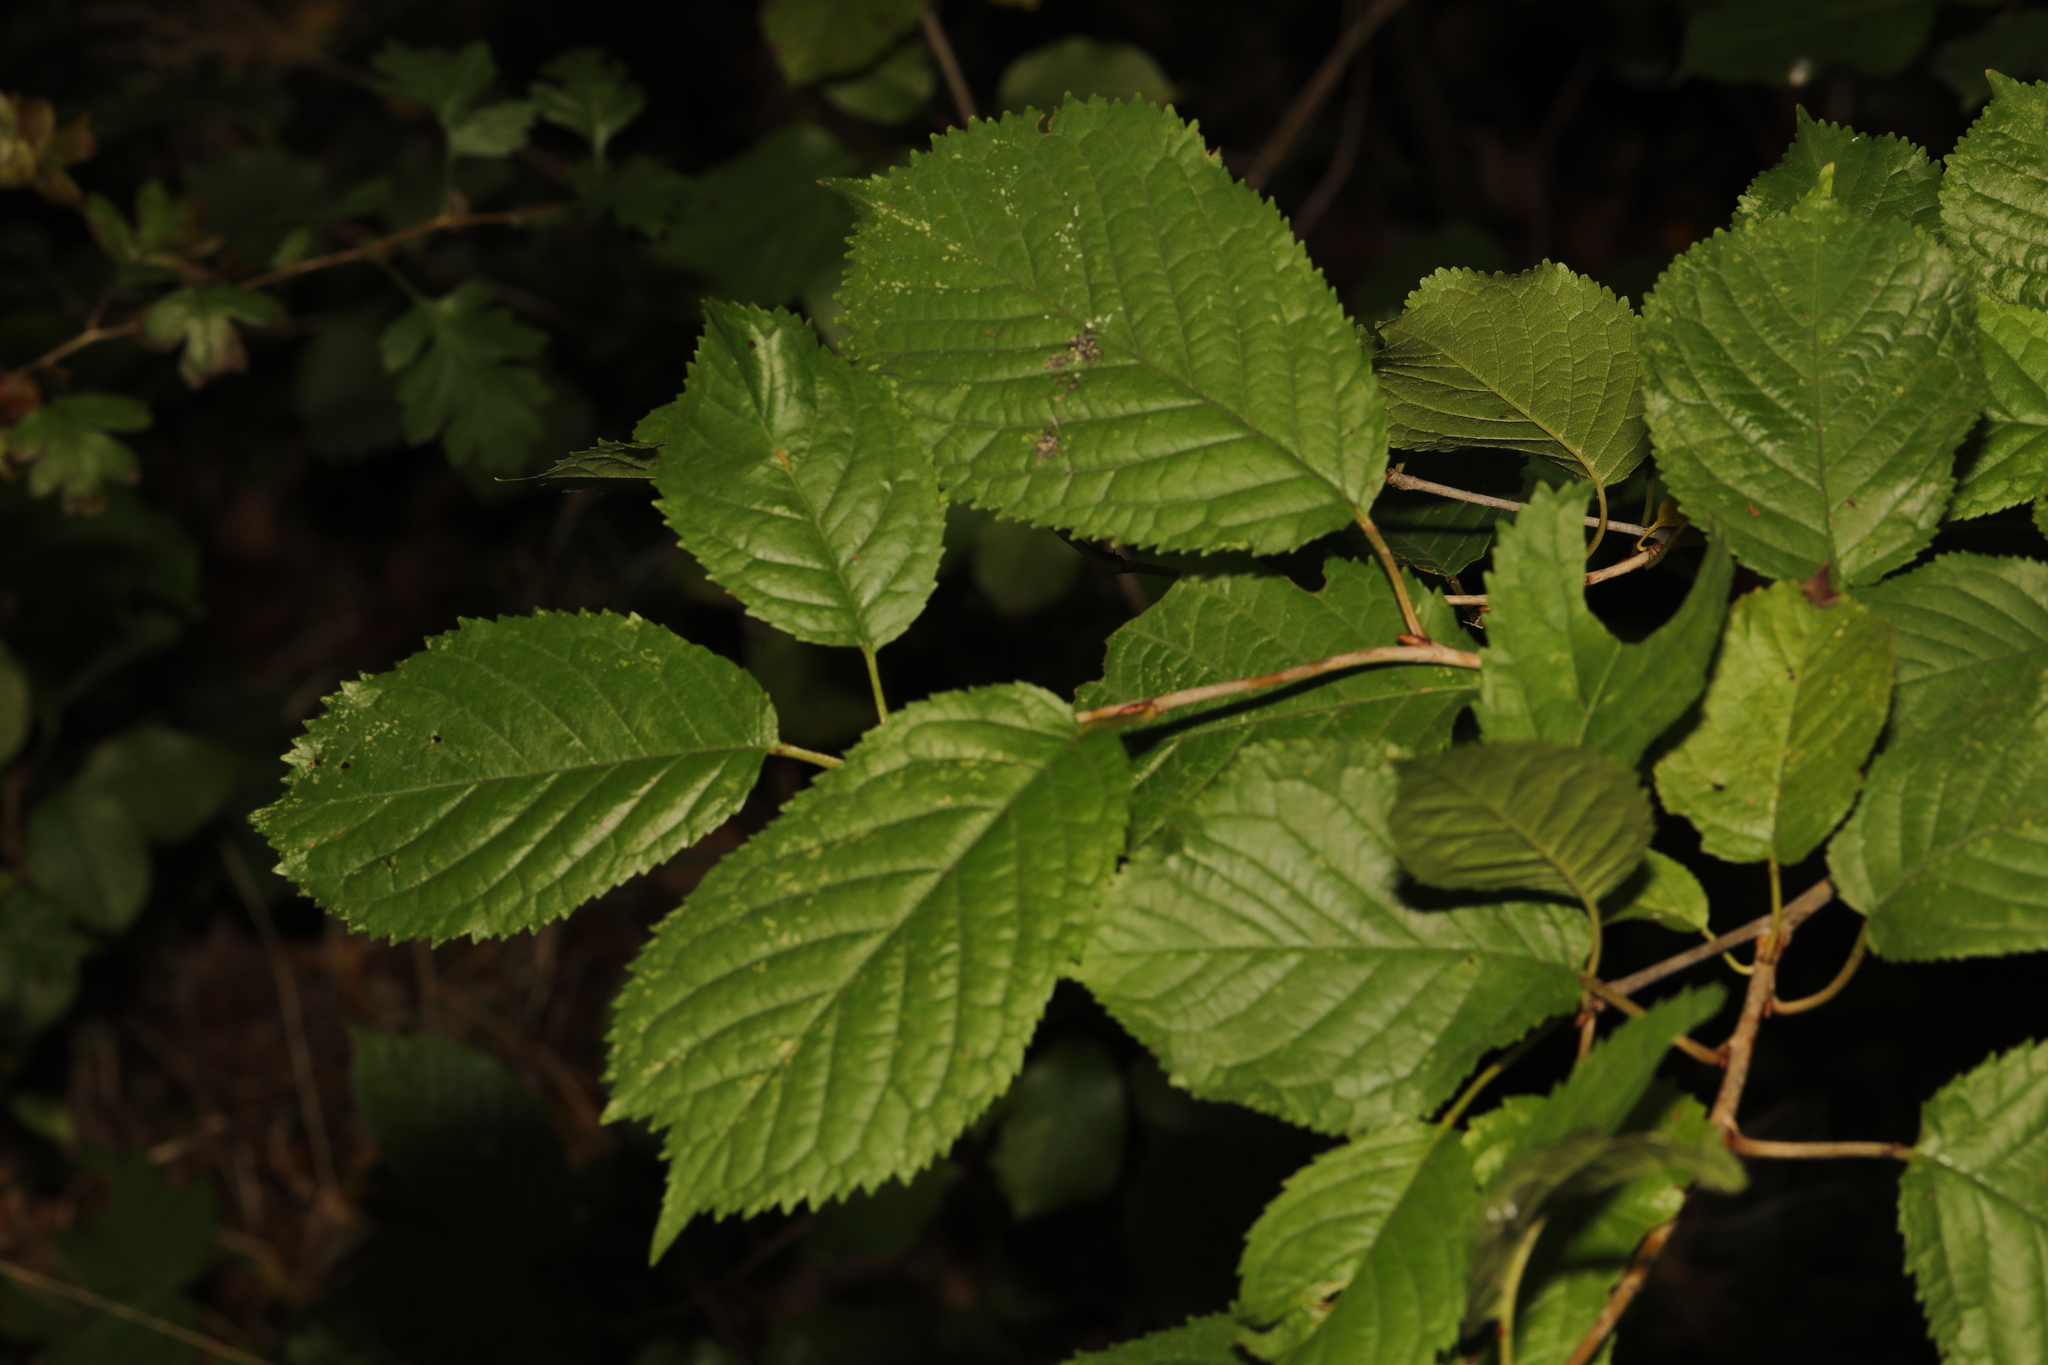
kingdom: Plantae
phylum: Tracheophyta
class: Magnoliopsida
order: Rosales
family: Rosaceae
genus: Prunus
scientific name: Prunus avium
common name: Sweet cherry
